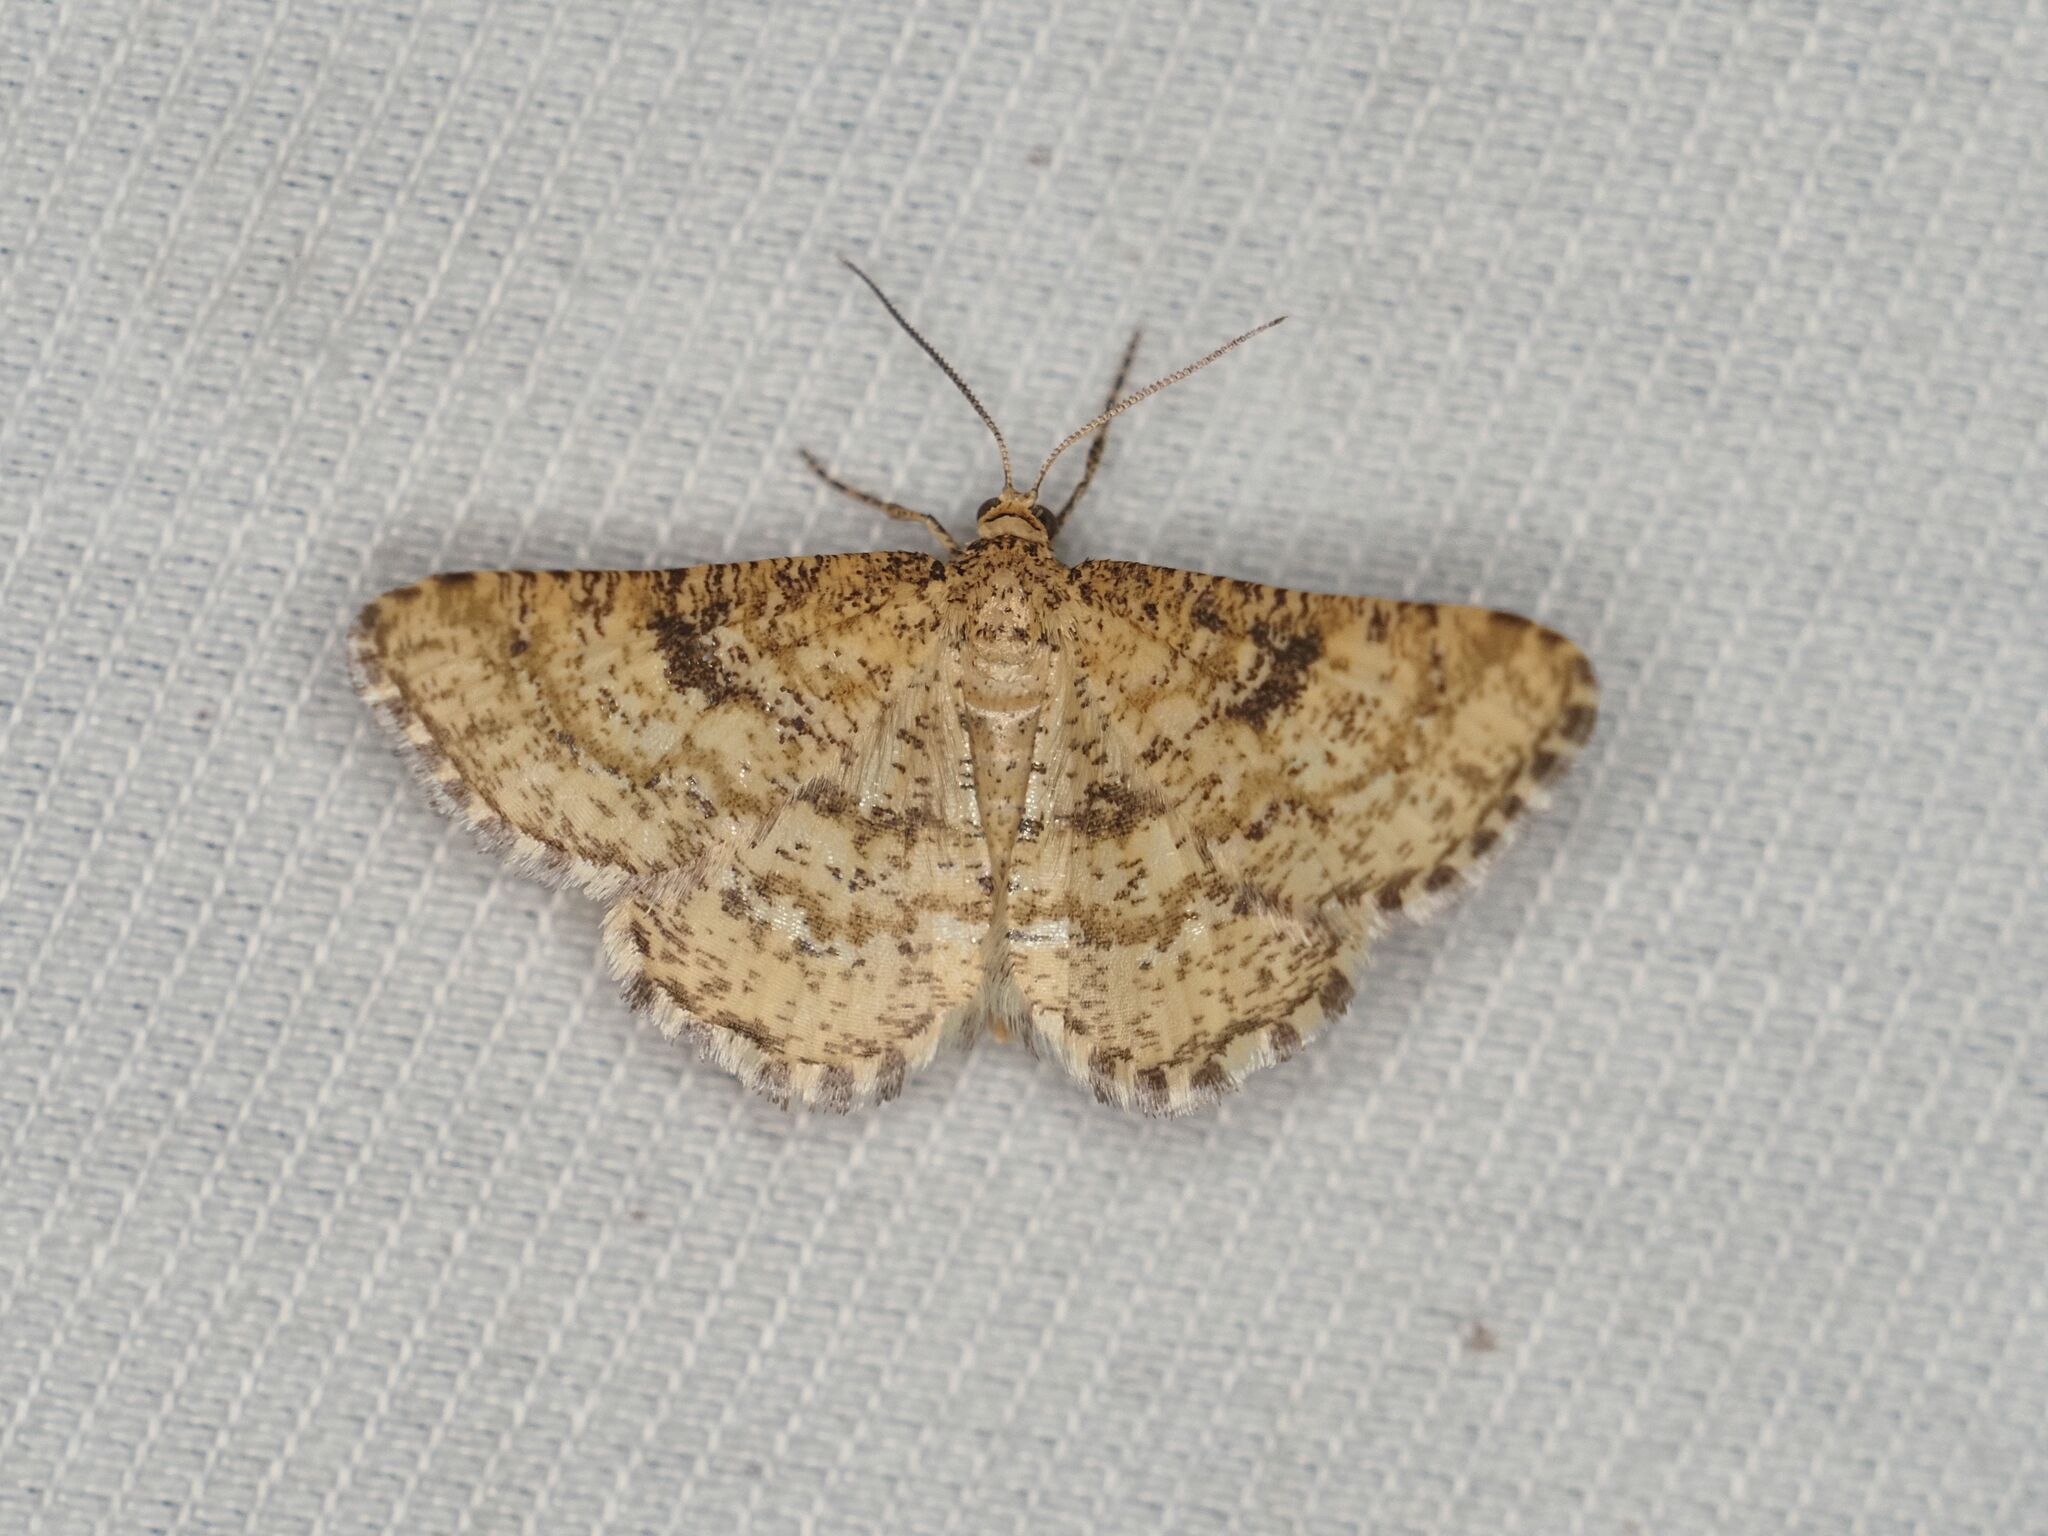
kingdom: Animalia
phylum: Arthropoda
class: Insecta
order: Lepidoptera
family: Geometridae
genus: Heliomata
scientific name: Heliomata glarearia
